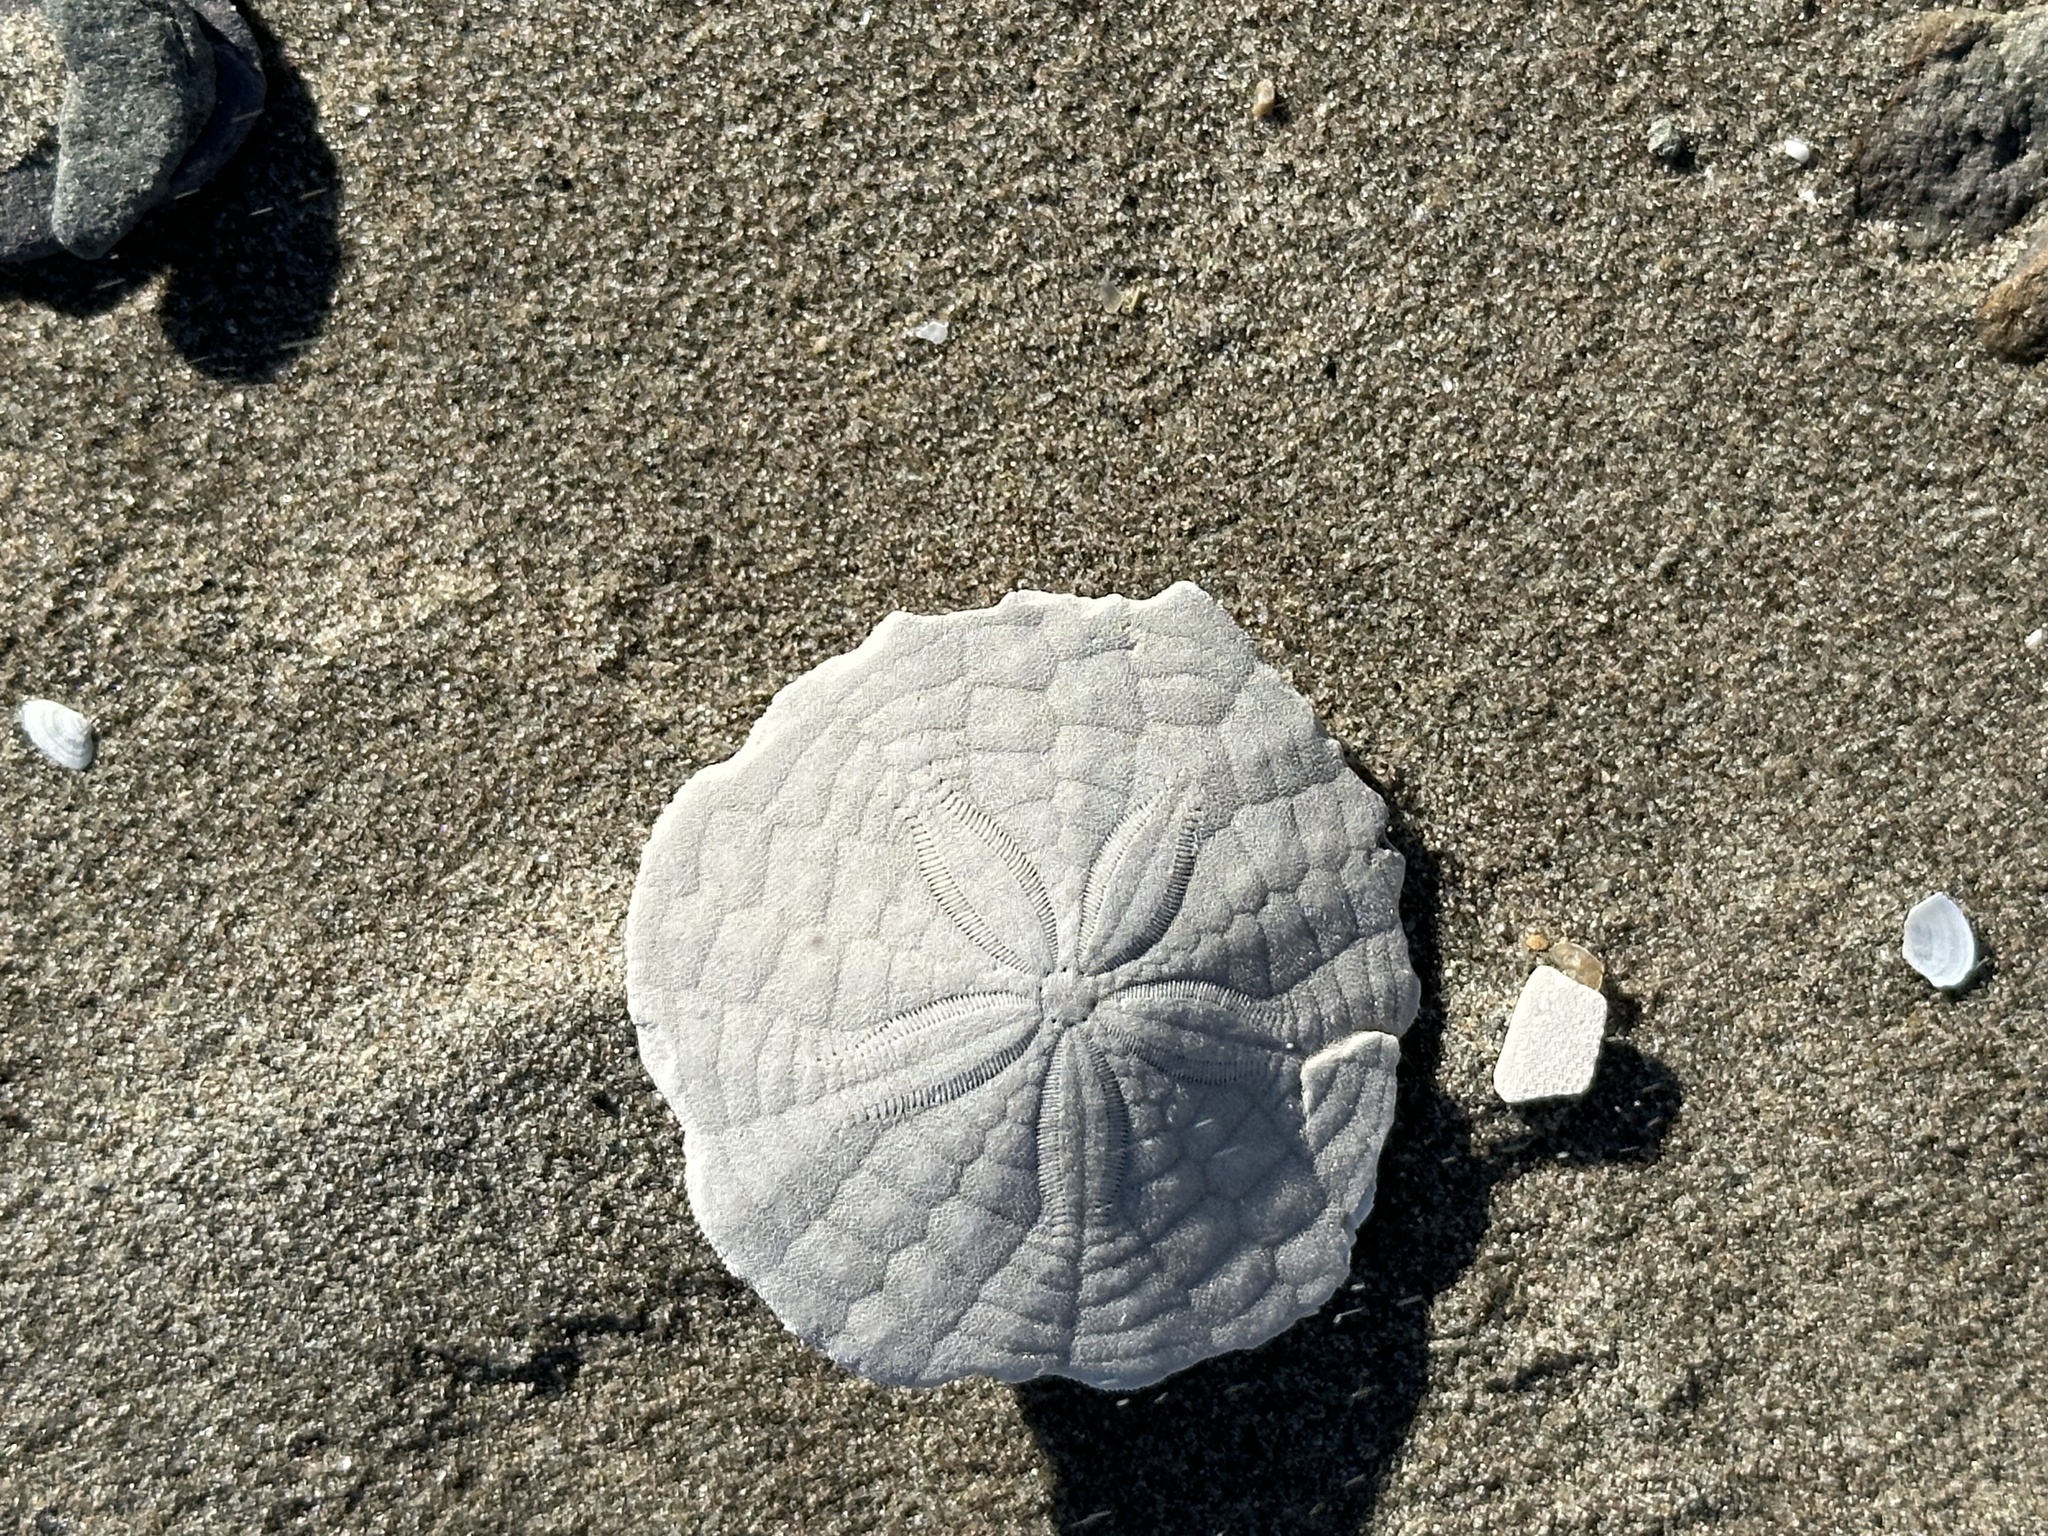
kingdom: Animalia
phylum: Echinodermata
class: Echinoidea
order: Echinolampadacea
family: Echinarachniidae
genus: Echinarachnius
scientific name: Echinarachnius parma
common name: Common sand dollar
